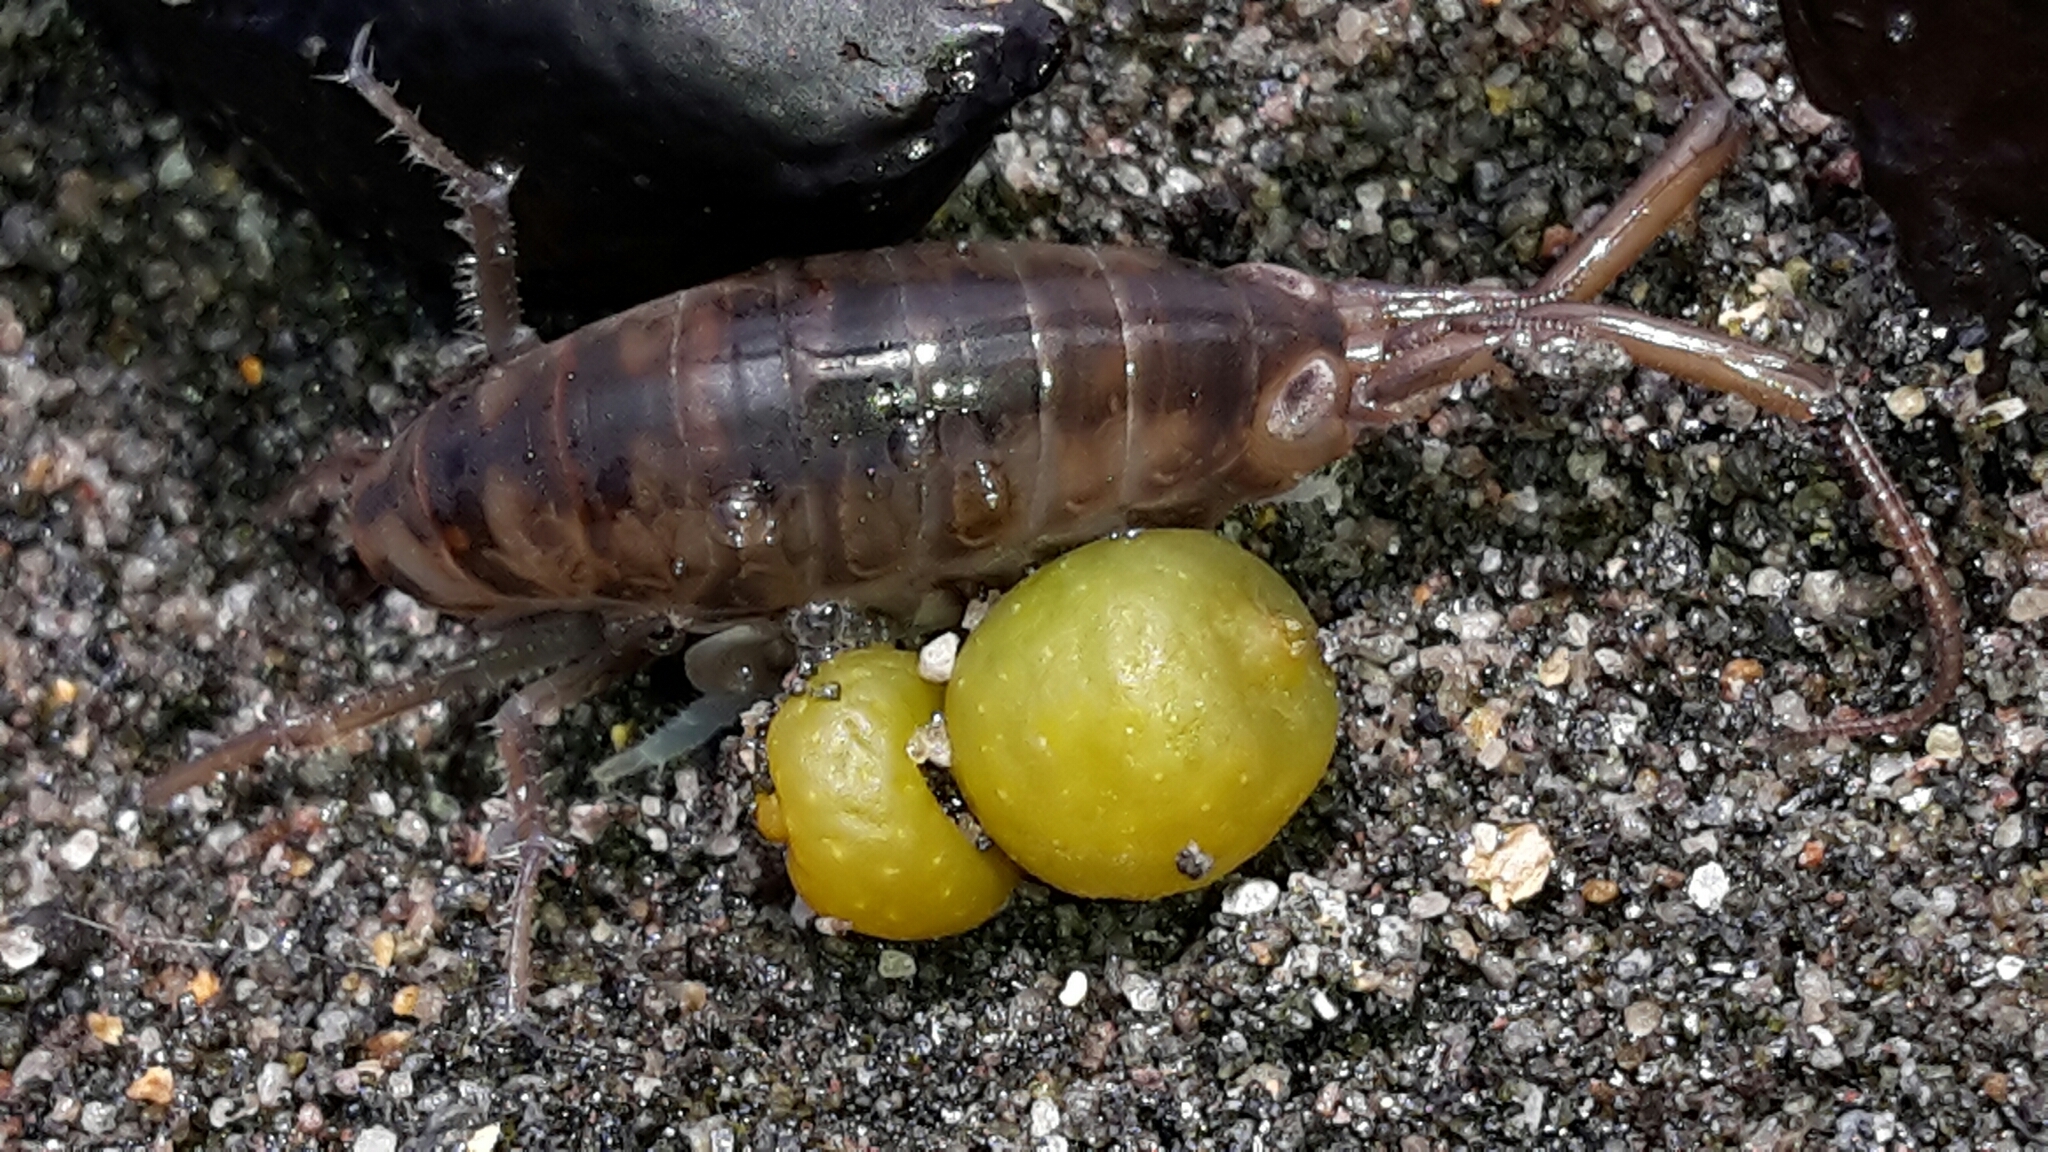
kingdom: Animalia
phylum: Arthropoda
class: Malacostraca
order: Amphipoda
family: Talitridae
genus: Bellorchestia
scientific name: Bellorchestia quoyana
